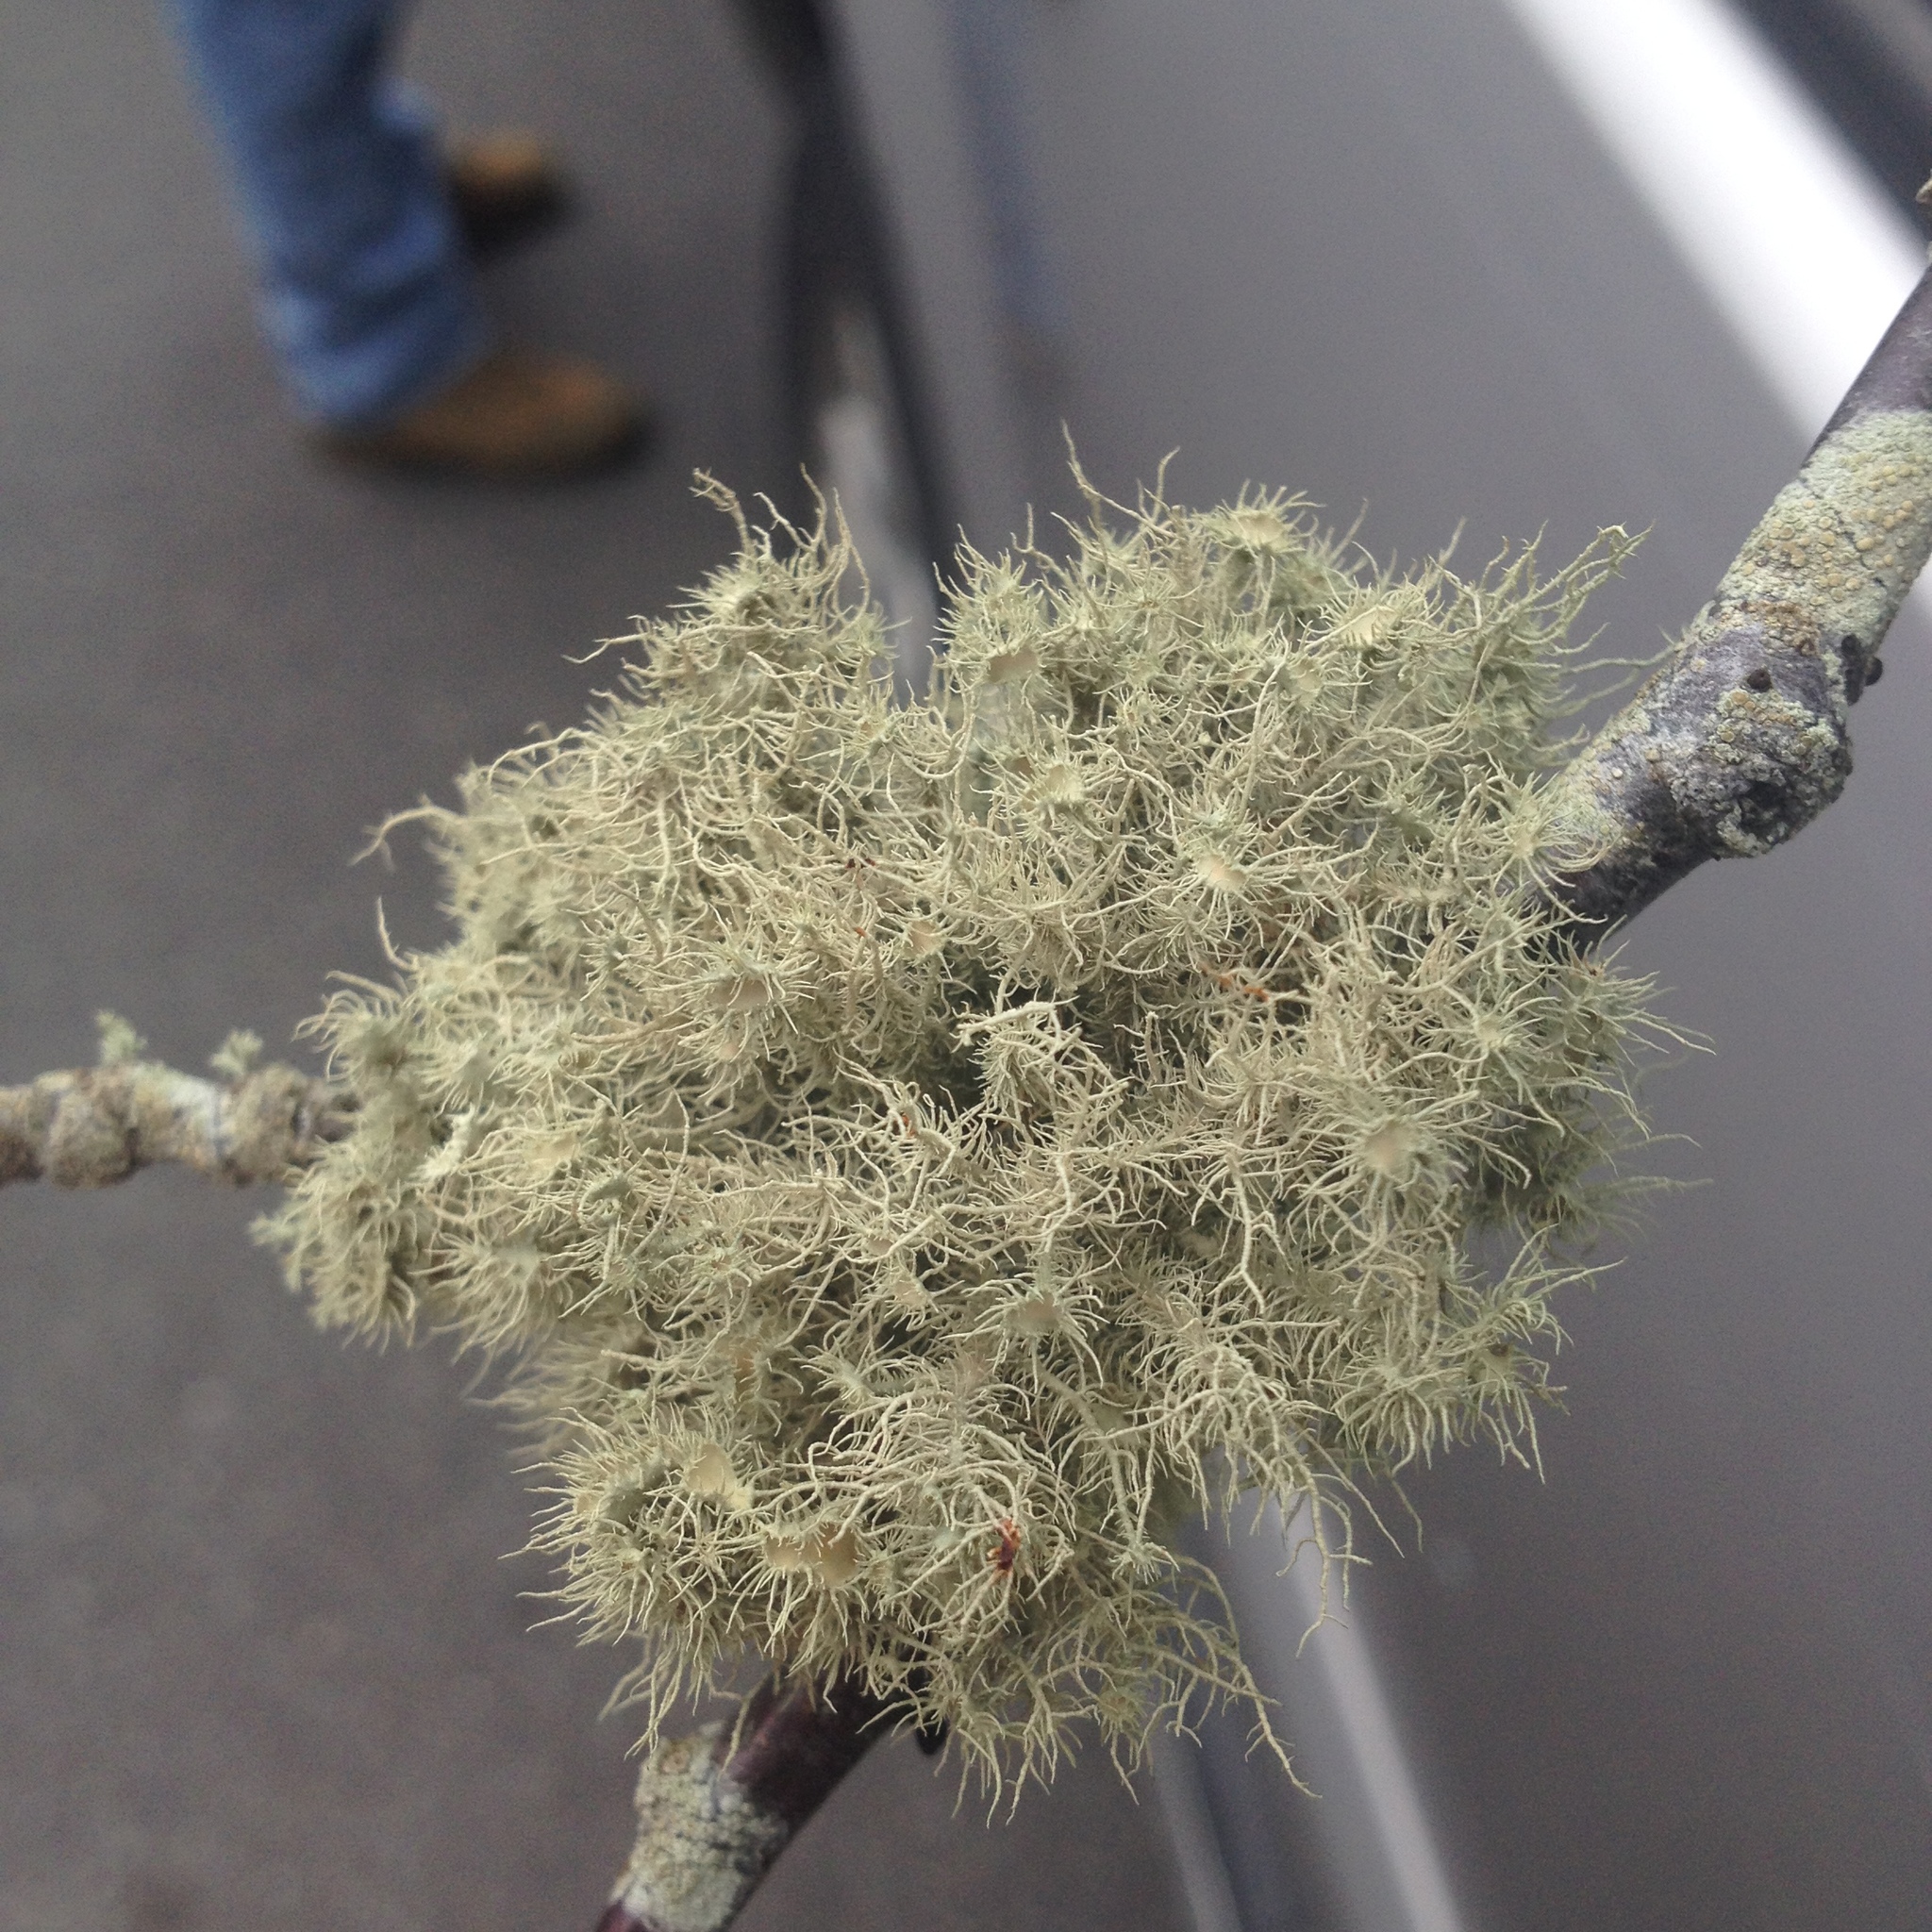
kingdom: Fungi
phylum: Ascomycota
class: Lecanoromycetes
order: Lecanorales
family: Parmeliaceae
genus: Usnea
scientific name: Usnea strigosa
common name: Bushy beard lichen
